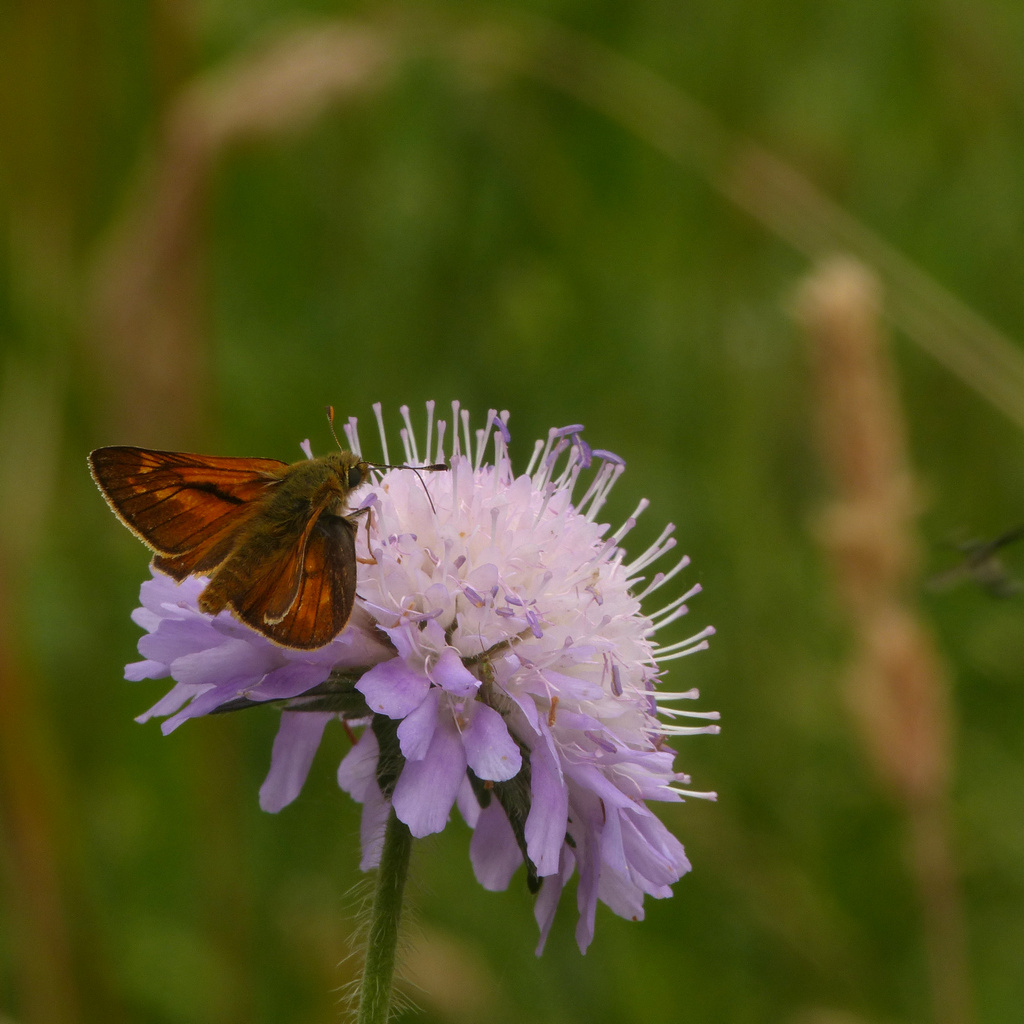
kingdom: Animalia
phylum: Arthropoda
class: Insecta
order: Lepidoptera
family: Hesperiidae
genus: Ochlodes
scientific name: Ochlodes venata
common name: Large skipper
